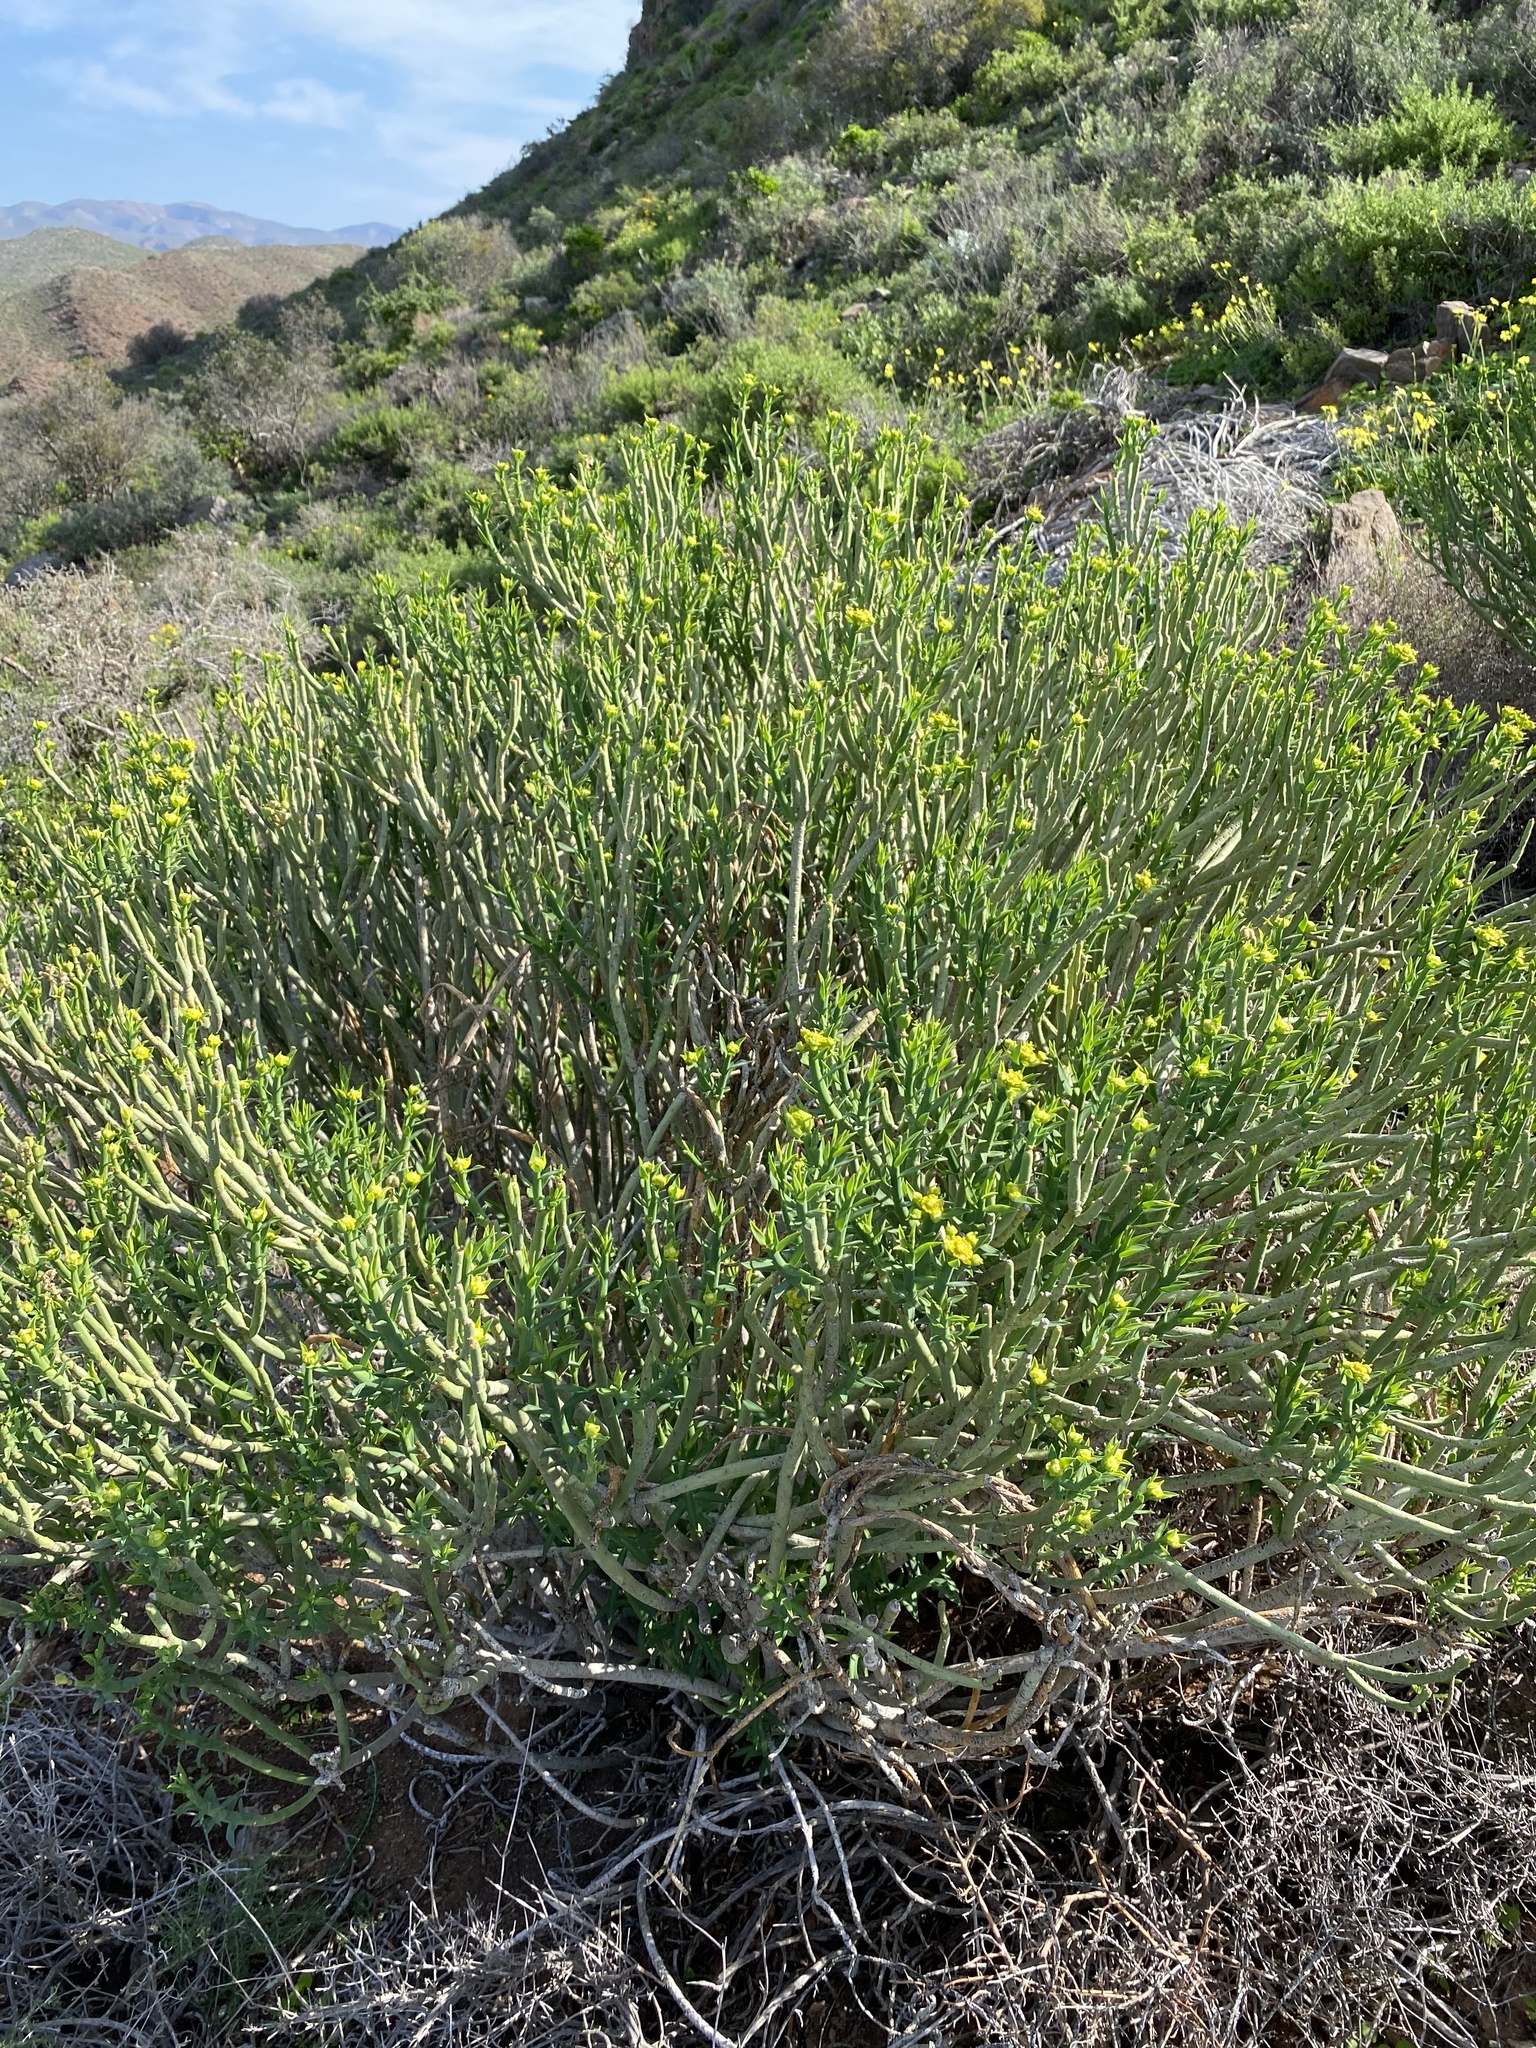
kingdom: Plantae
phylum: Tracheophyta
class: Magnoliopsida
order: Malpighiales
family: Euphorbiaceae
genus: Euphorbia
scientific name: Euphorbia mauritanica
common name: Jackal's-food
